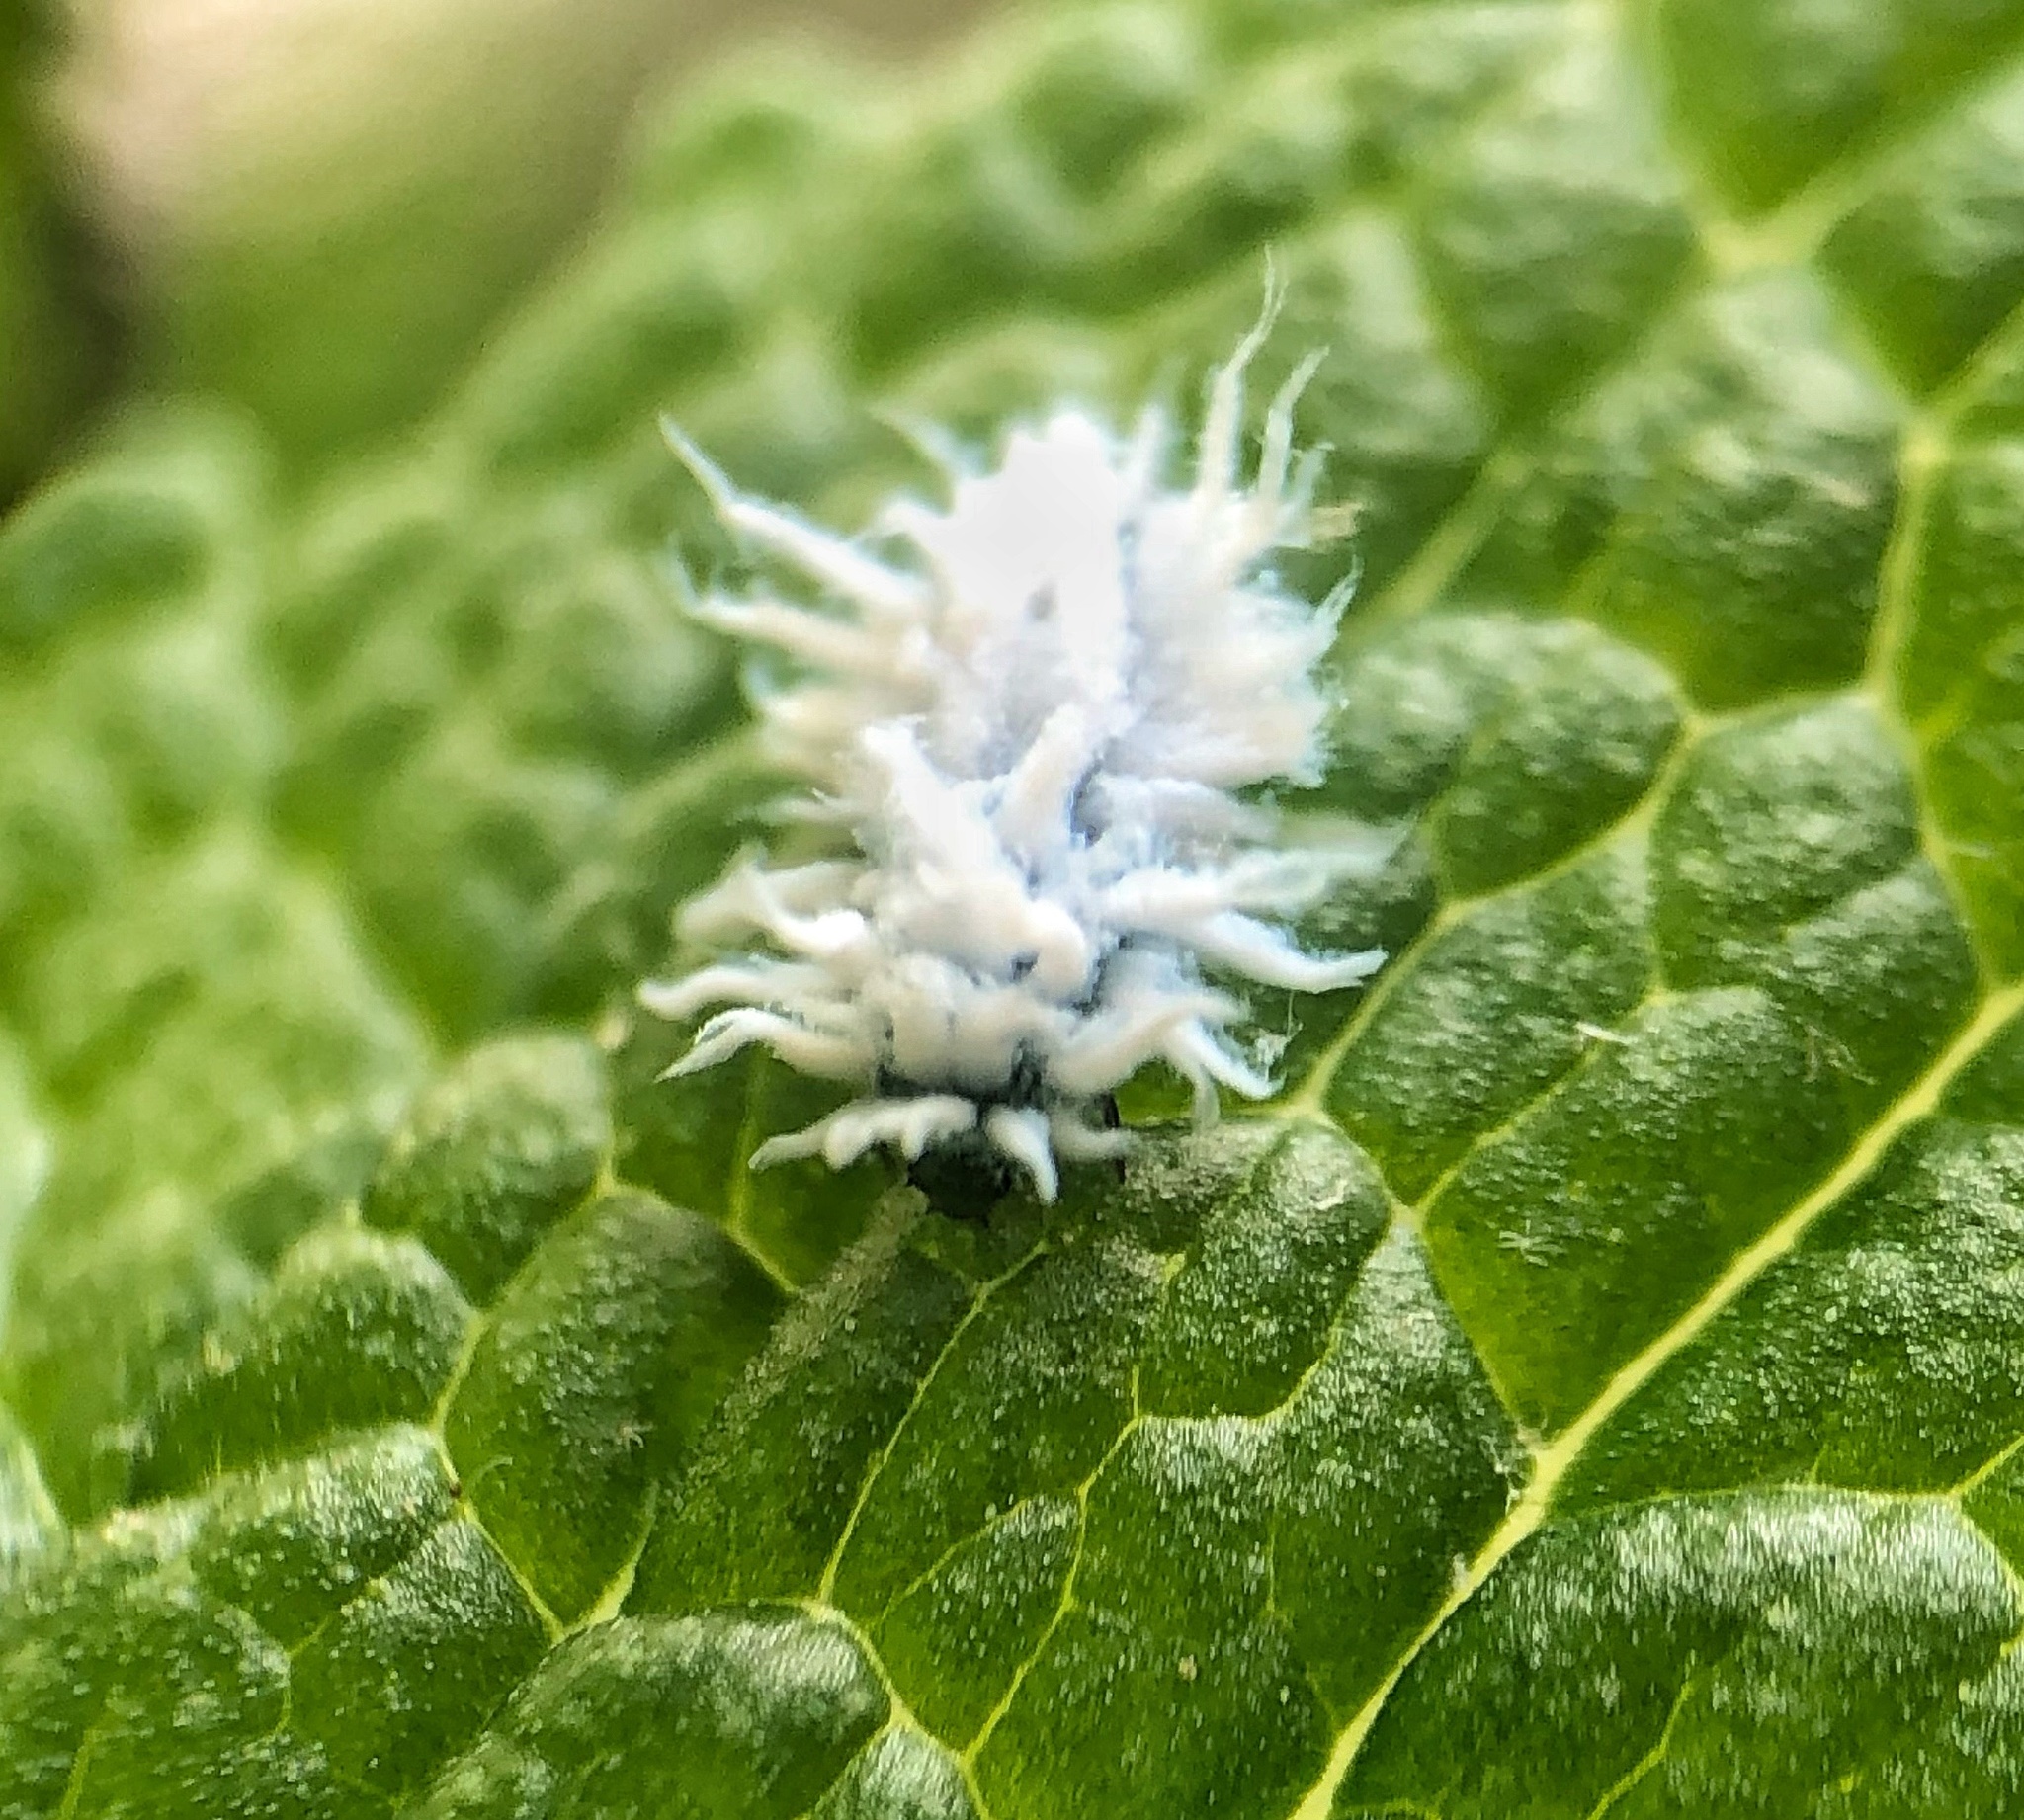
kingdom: Animalia
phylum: Arthropoda
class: Insecta
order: Coleoptera
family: Coccinellidae
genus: Cryptolaemus
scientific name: Cryptolaemus montrouzieri
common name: Mealybug destroyer
